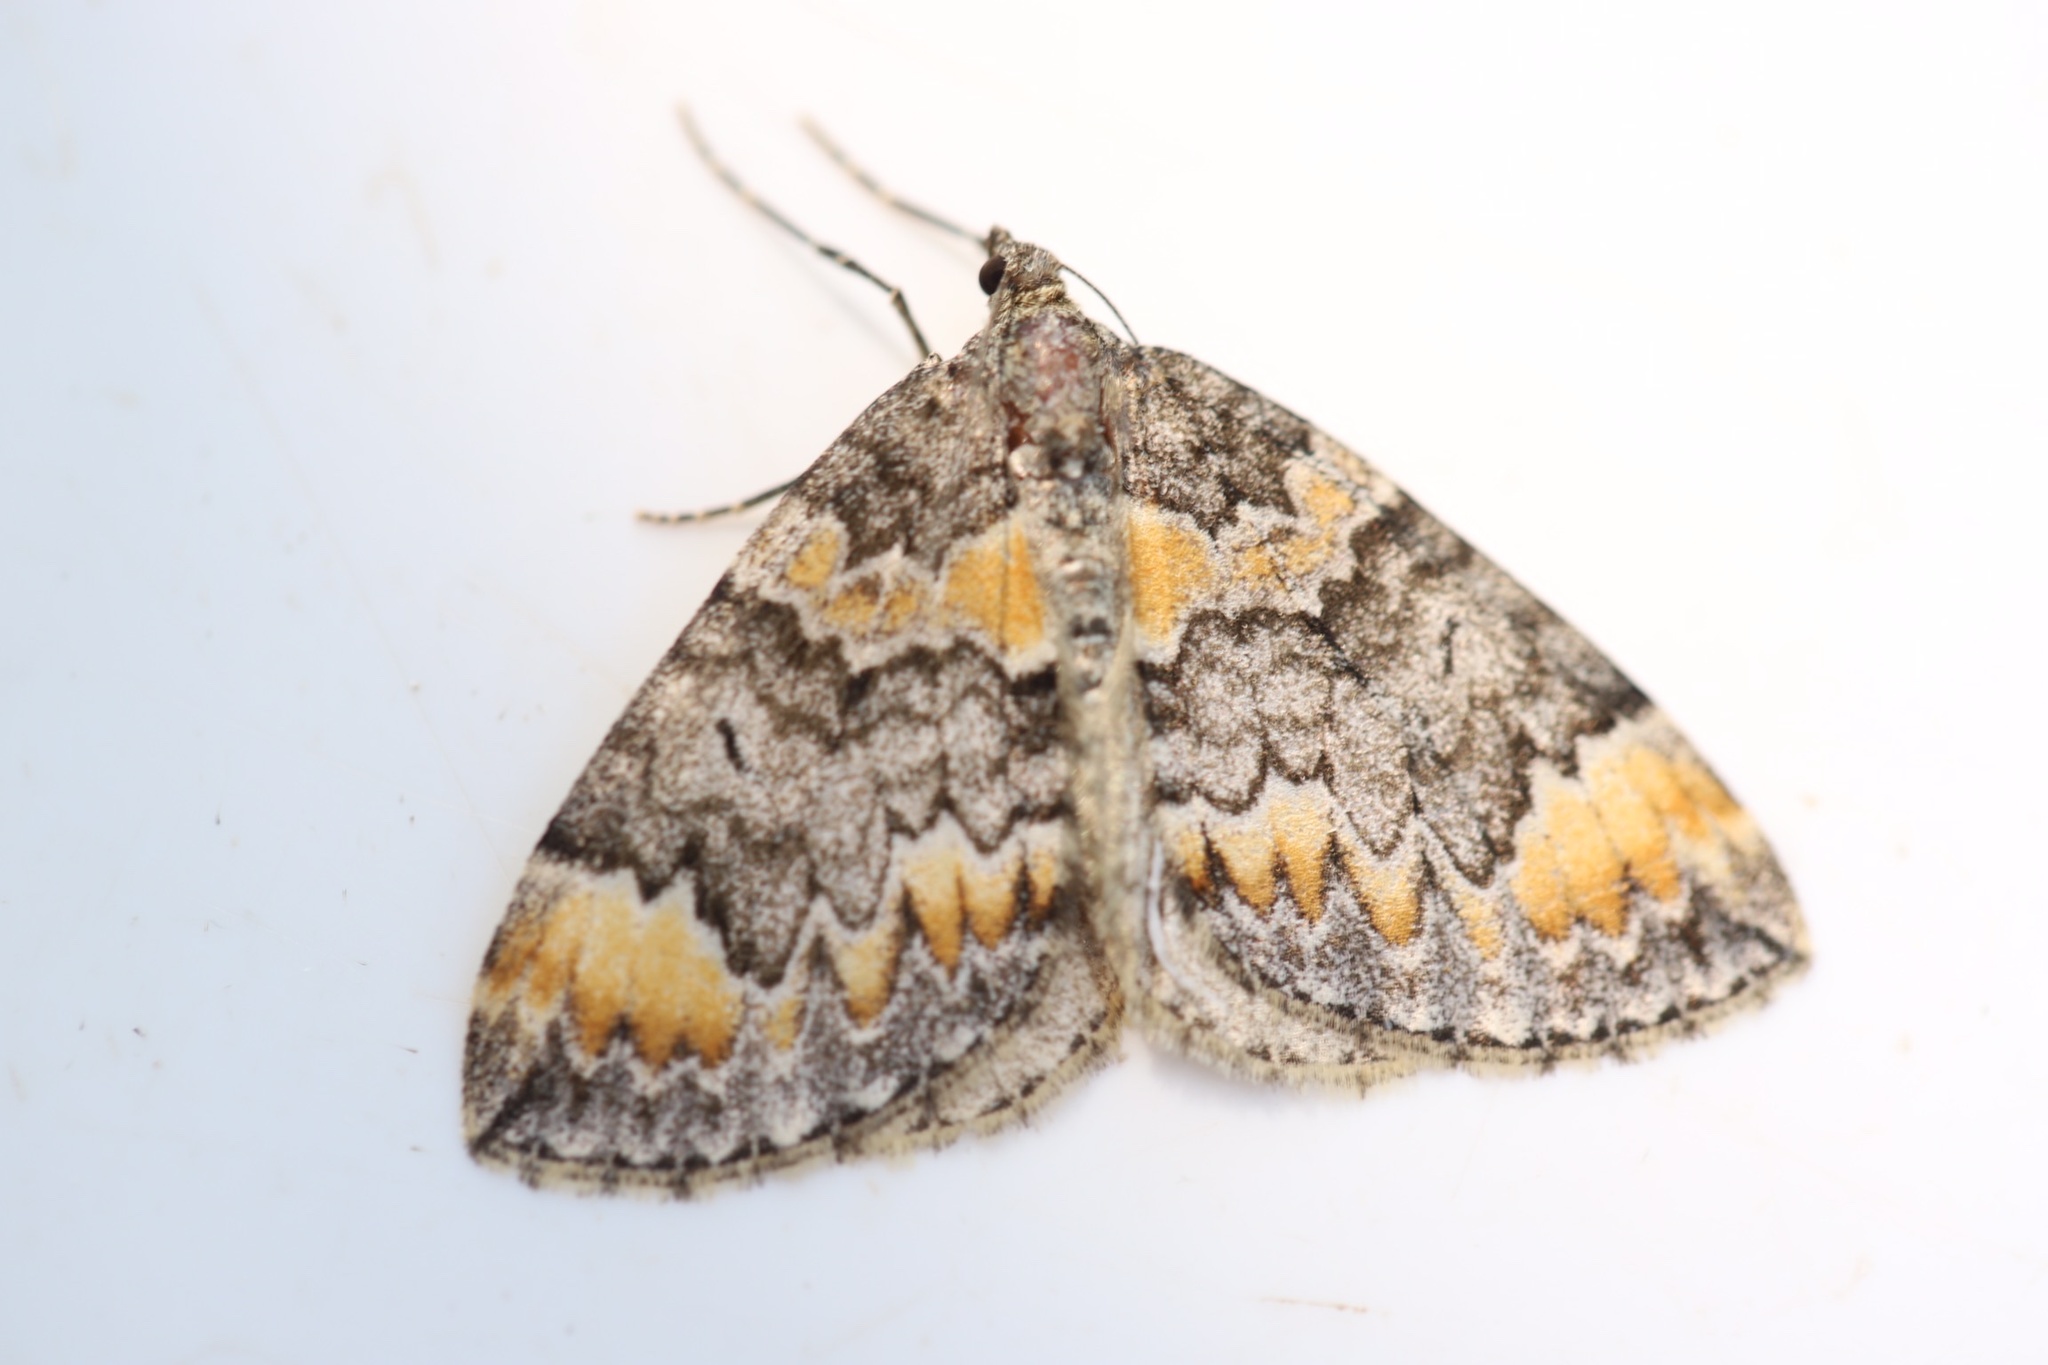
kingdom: Animalia
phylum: Arthropoda
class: Insecta
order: Lepidoptera
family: Geometridae
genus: Dysstroma
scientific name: Dysstroma truncata
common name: Common marbled carpet
